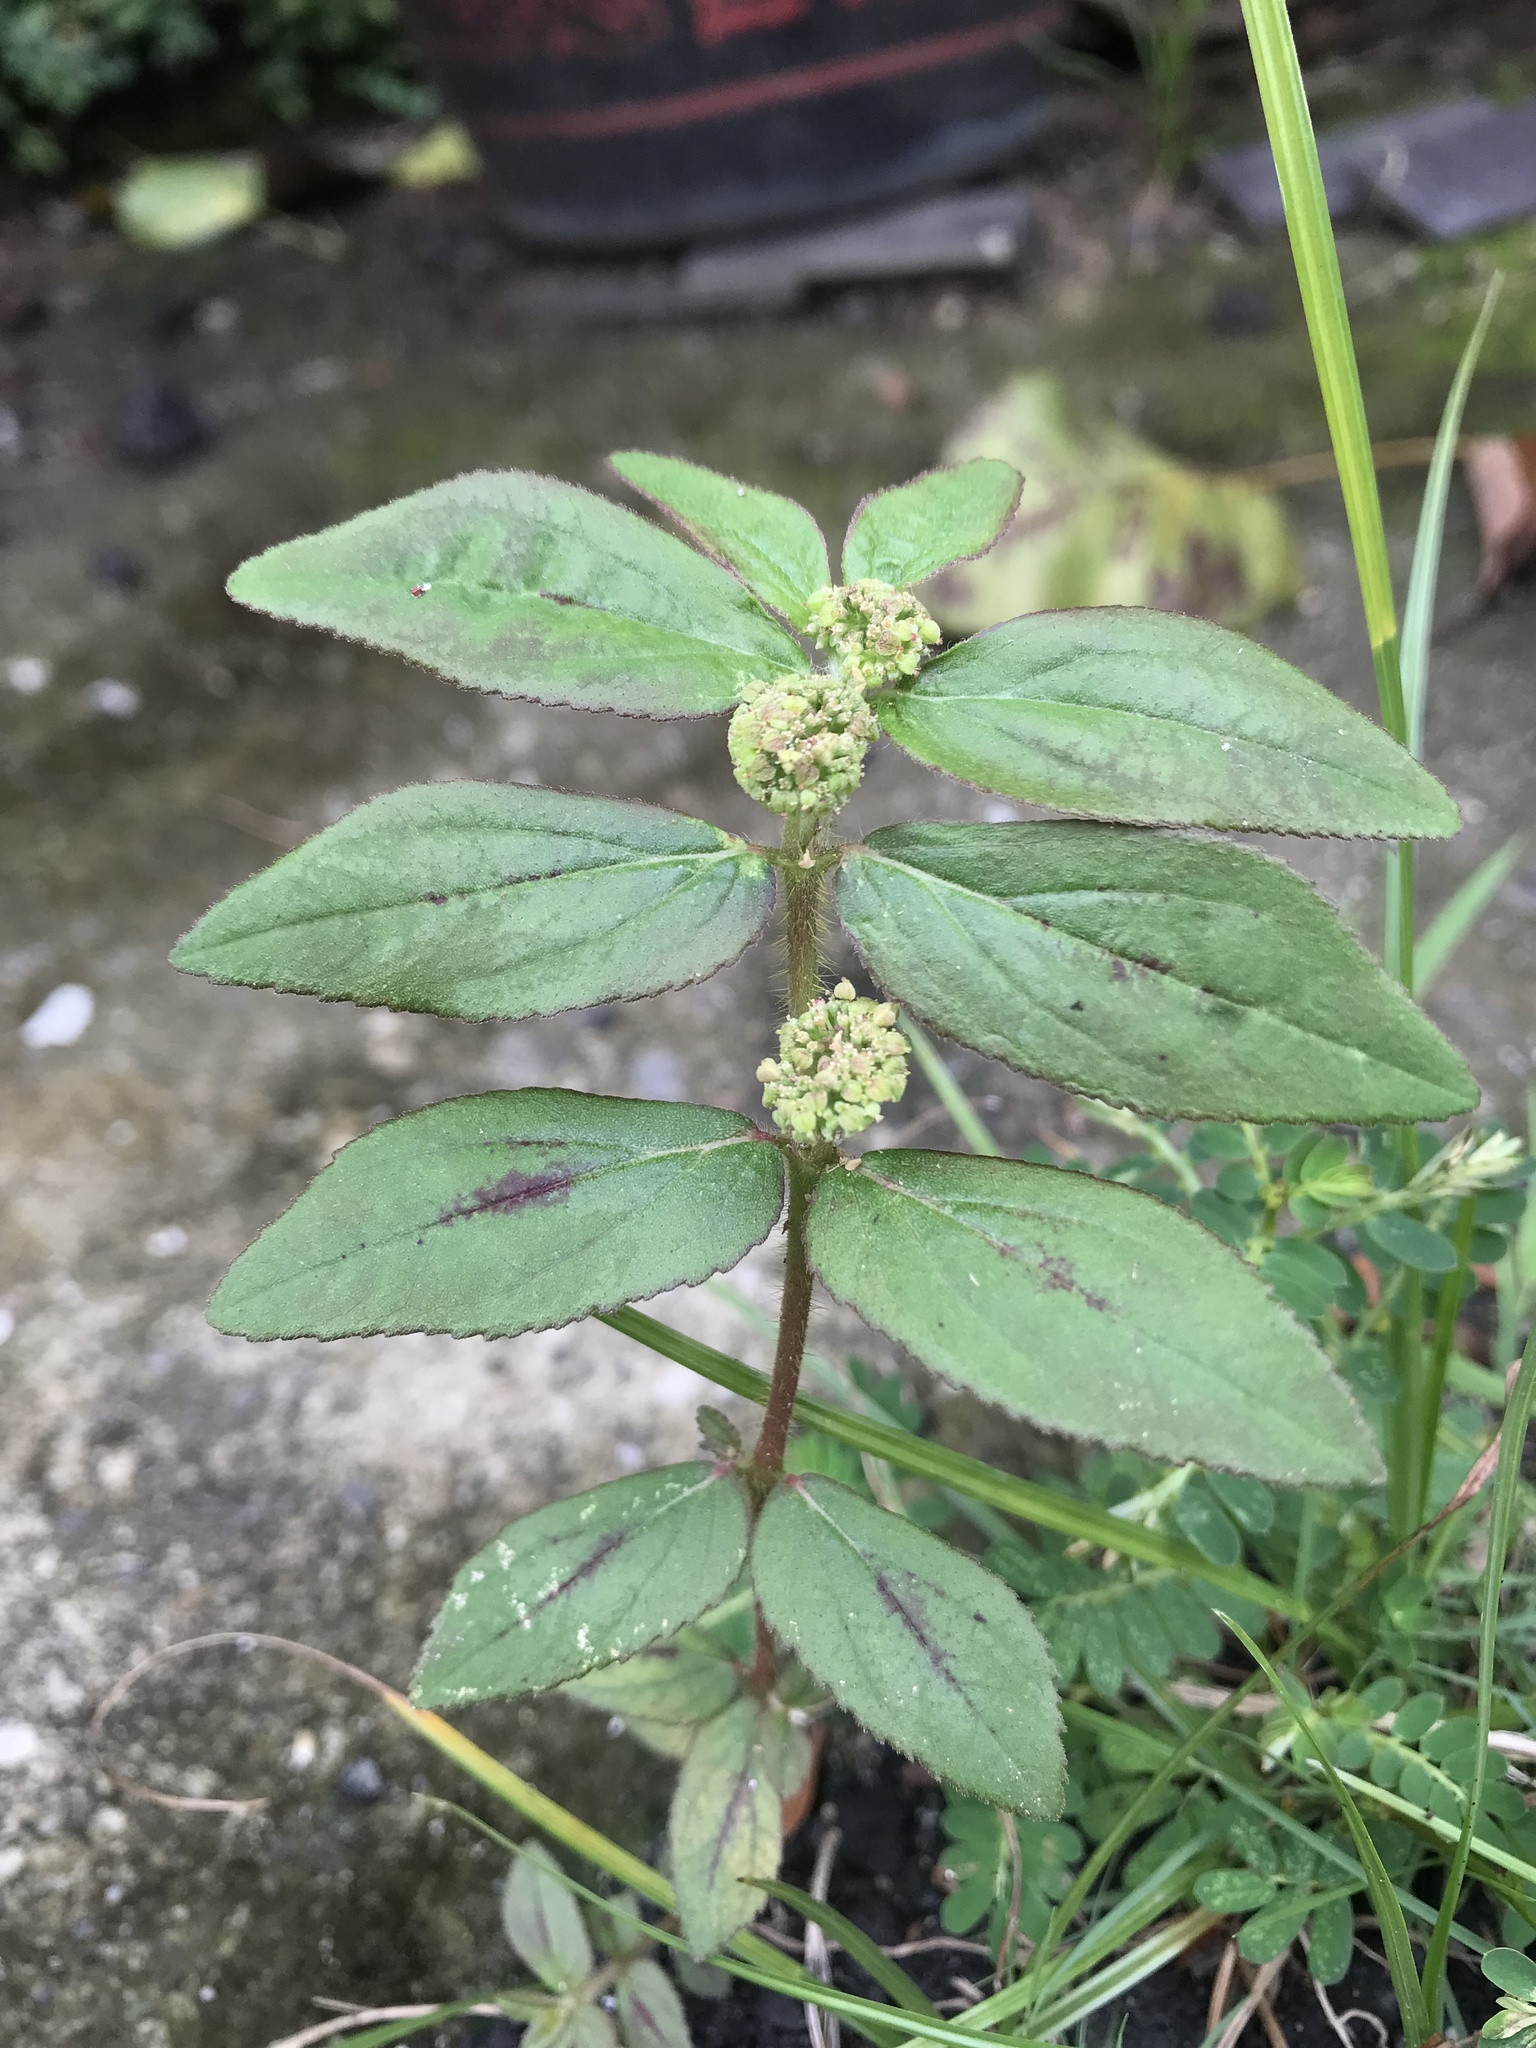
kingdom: Plantae
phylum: Tracheophyta
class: Magnoliopsida
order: Malpighiales
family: Euphorbiaceae
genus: Euphorbia
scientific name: Euphorbia hirta
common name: Pillpod sandmat
